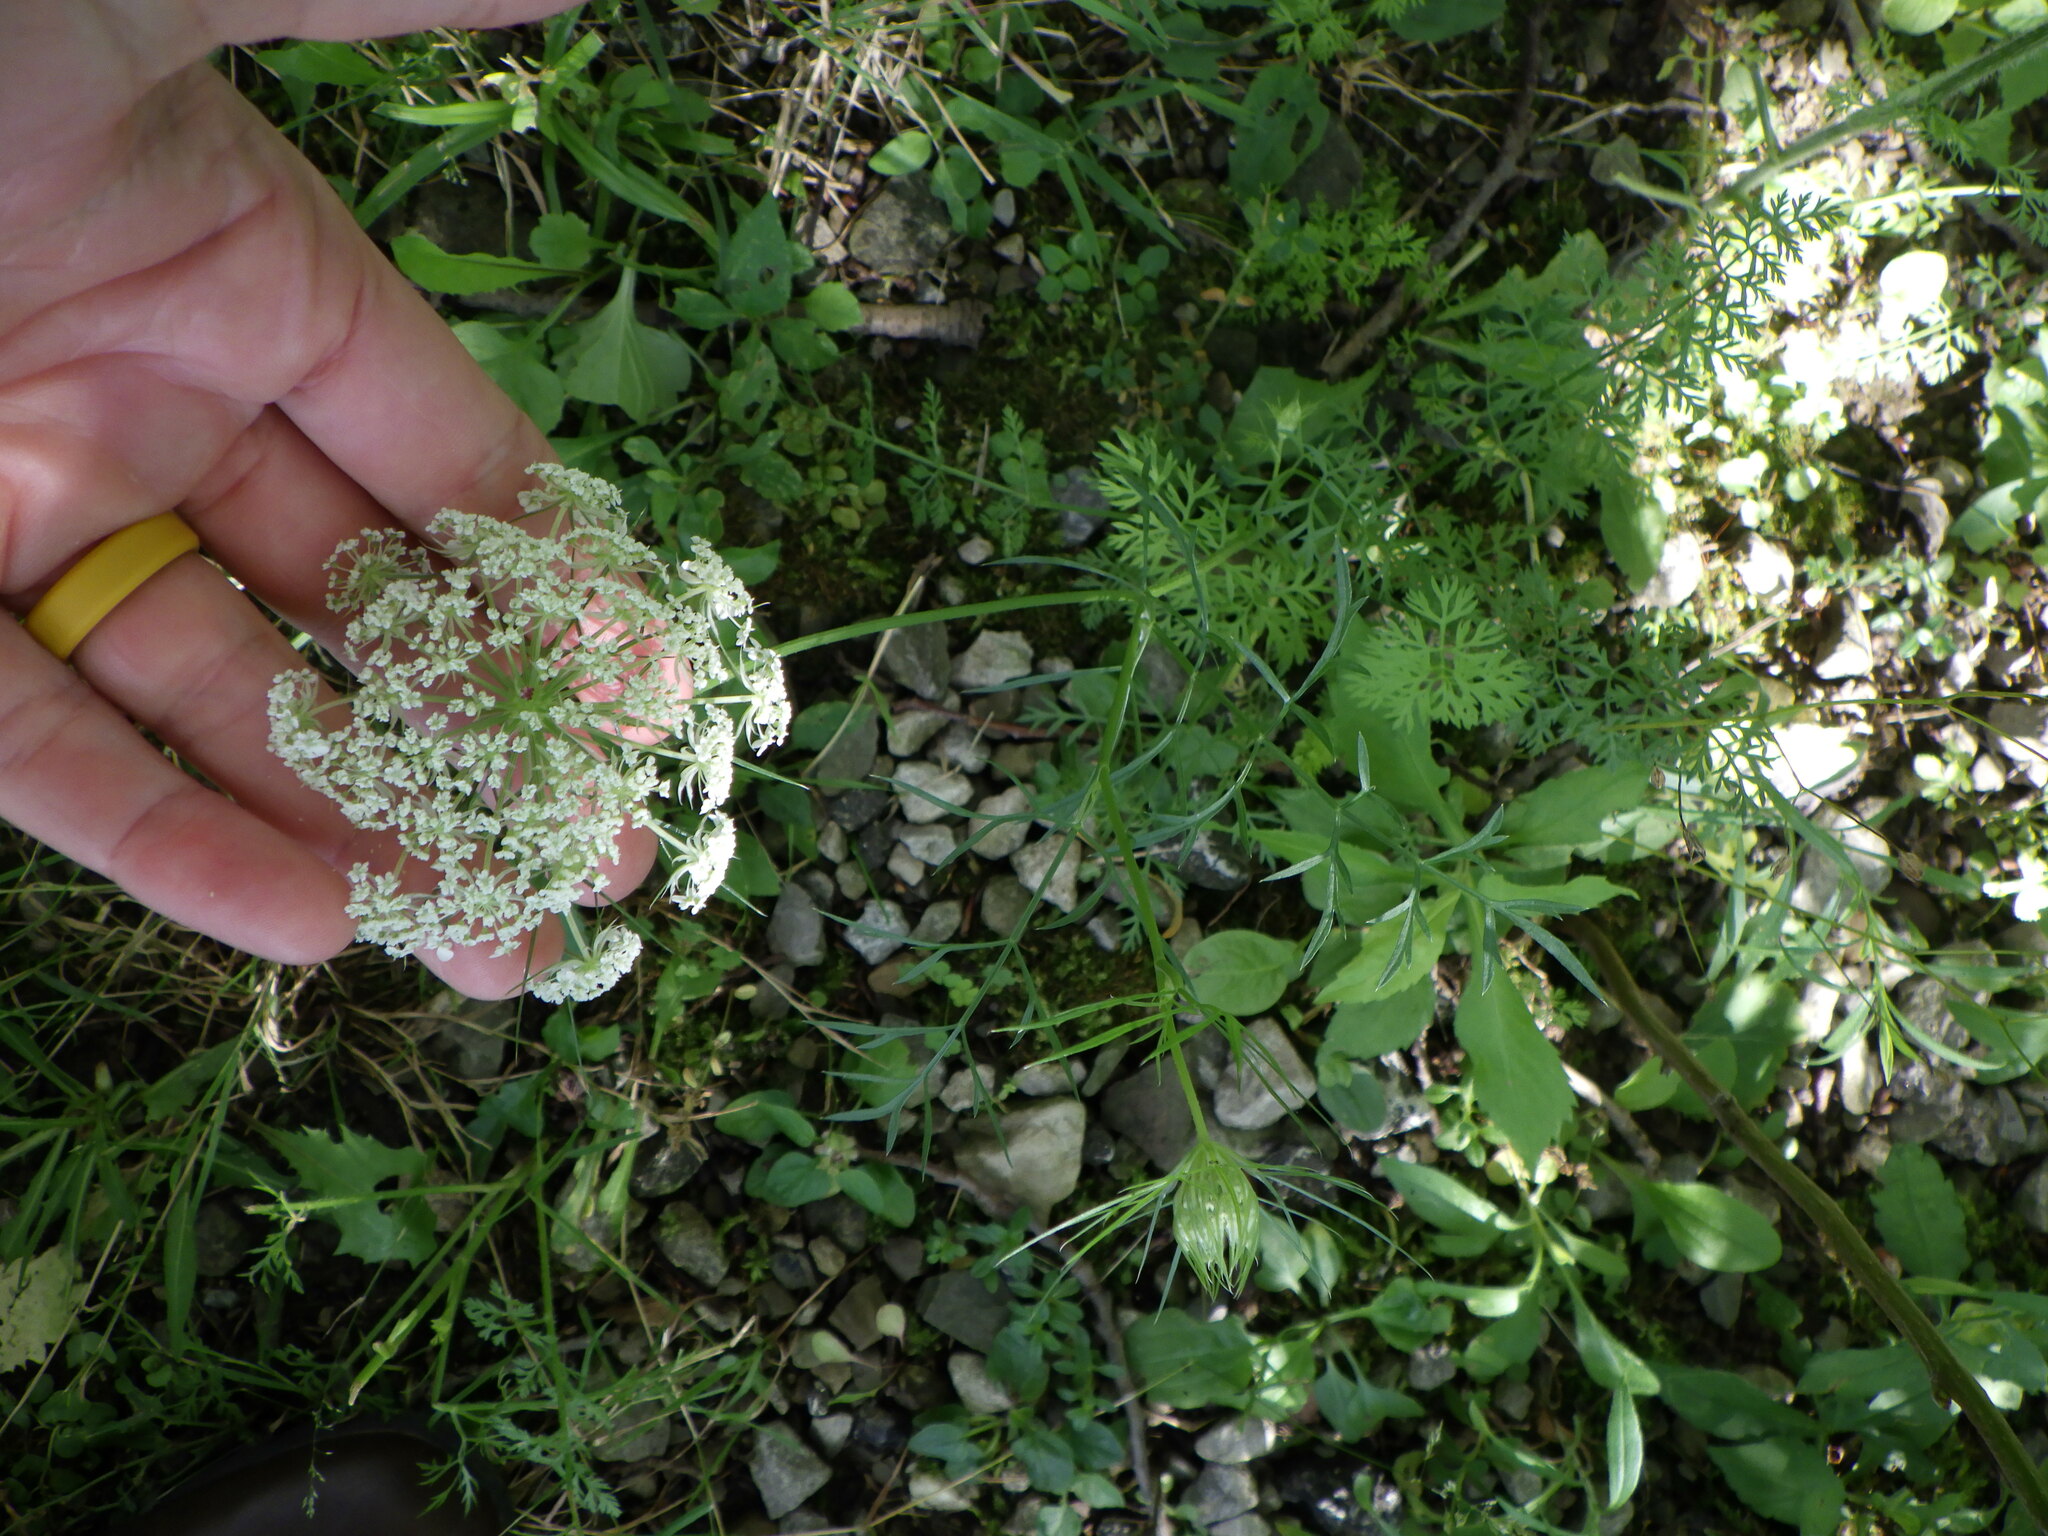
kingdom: Plantae
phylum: Tracheophyta
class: Magnoliopsida
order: Apiales
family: Apiaceae
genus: Daucus
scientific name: Daucus carota
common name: Wild carrot
